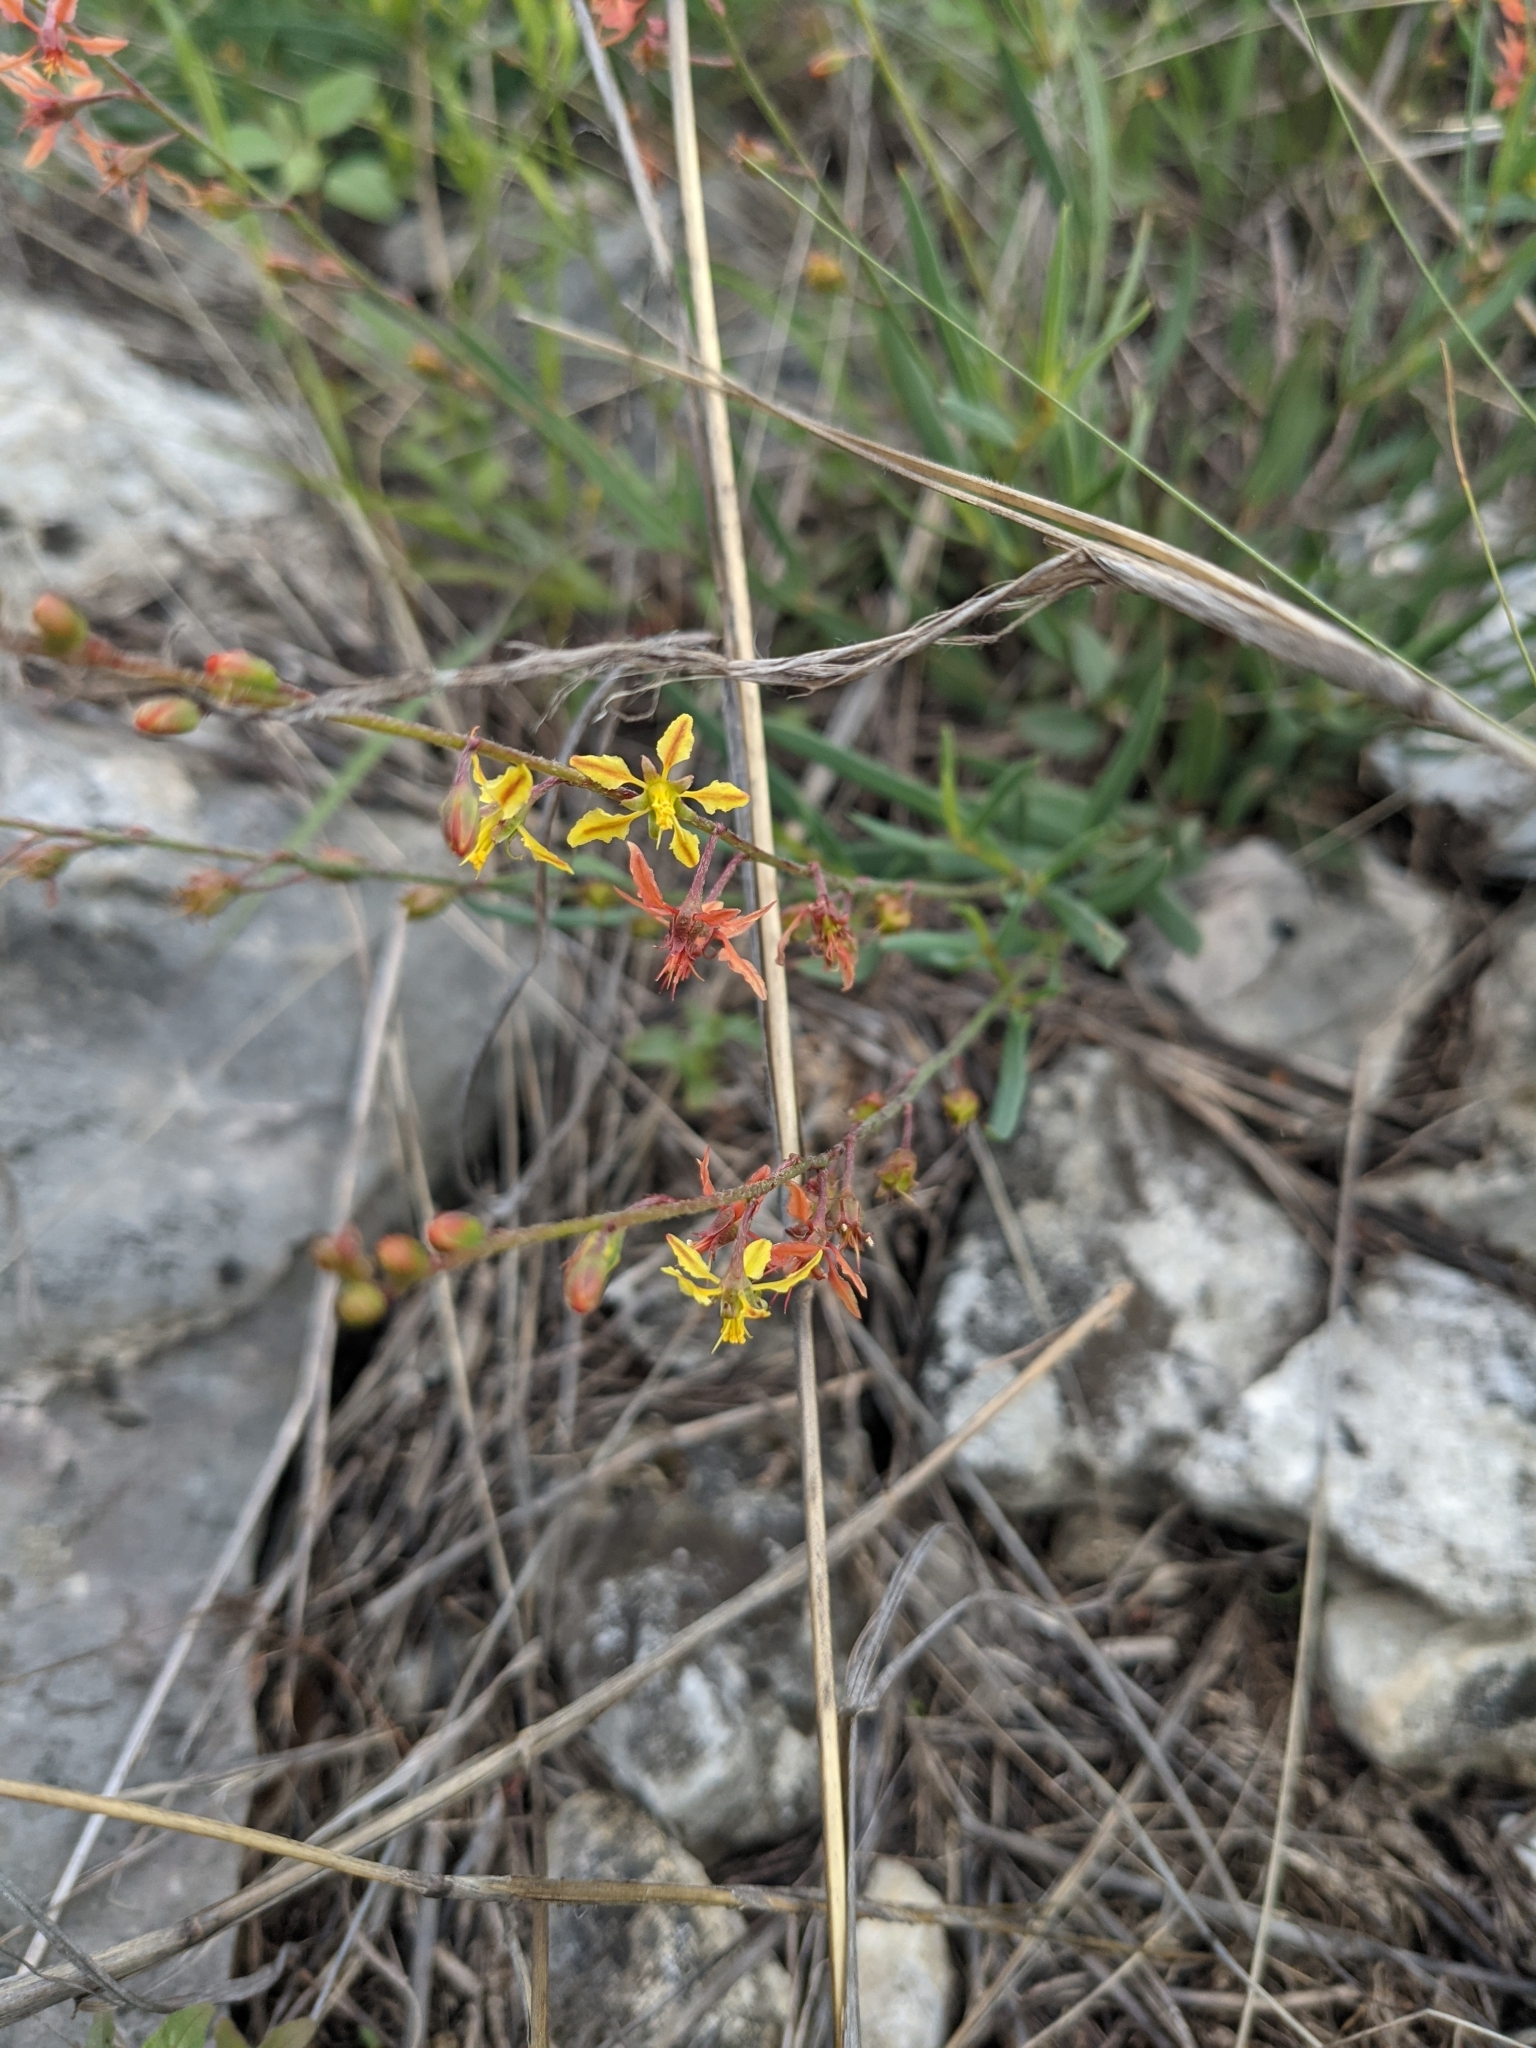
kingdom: Plantae
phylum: Tracheophyta
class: Magnoliopsida
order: Malpighiales
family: Malpighiaceae
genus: Galphimia
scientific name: Galphimia angustifolia
